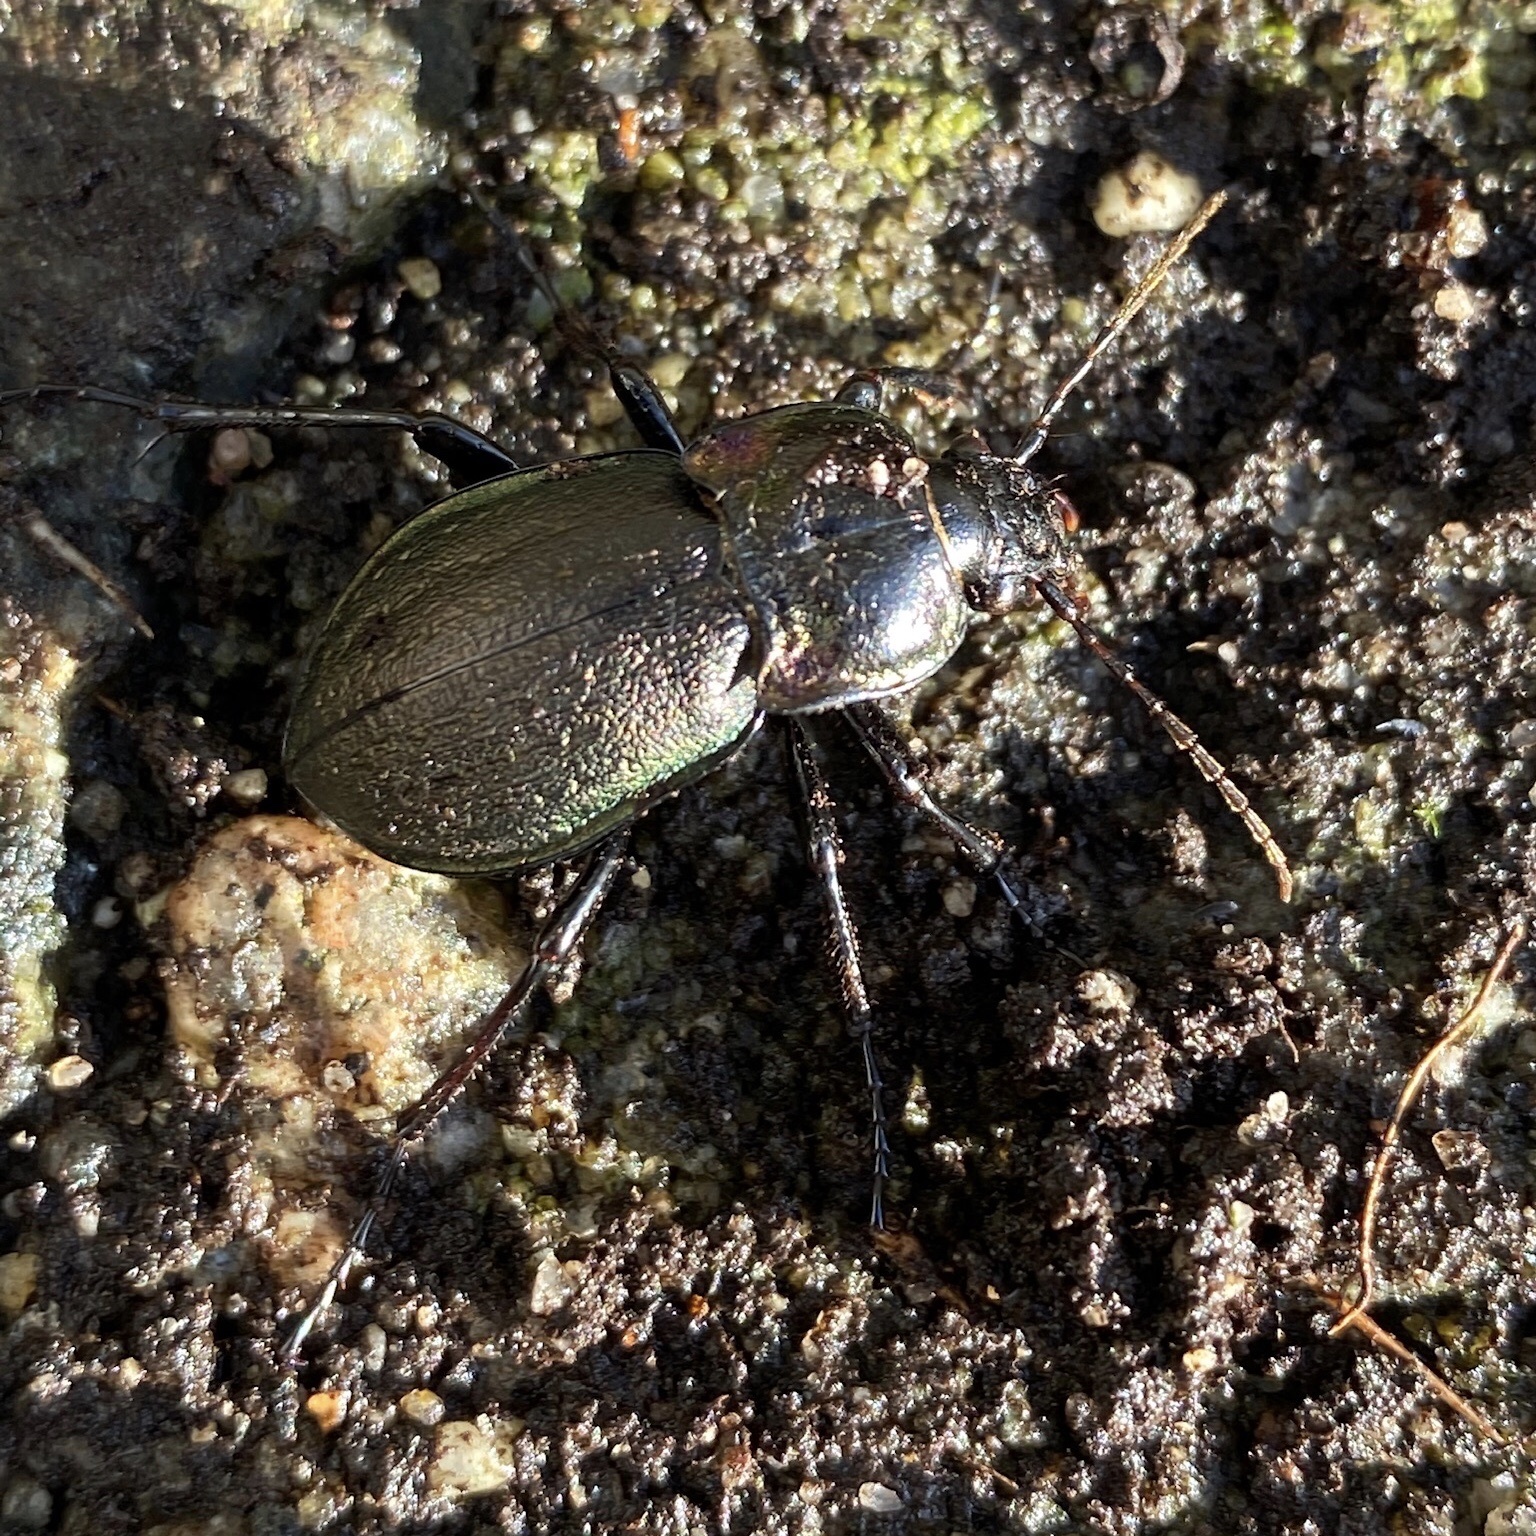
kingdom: Animalia
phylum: Arthropoda
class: Insecta
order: Coleoptera
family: Carabidae
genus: Carabus
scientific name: Carabus nemoralis
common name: European ground beetle
